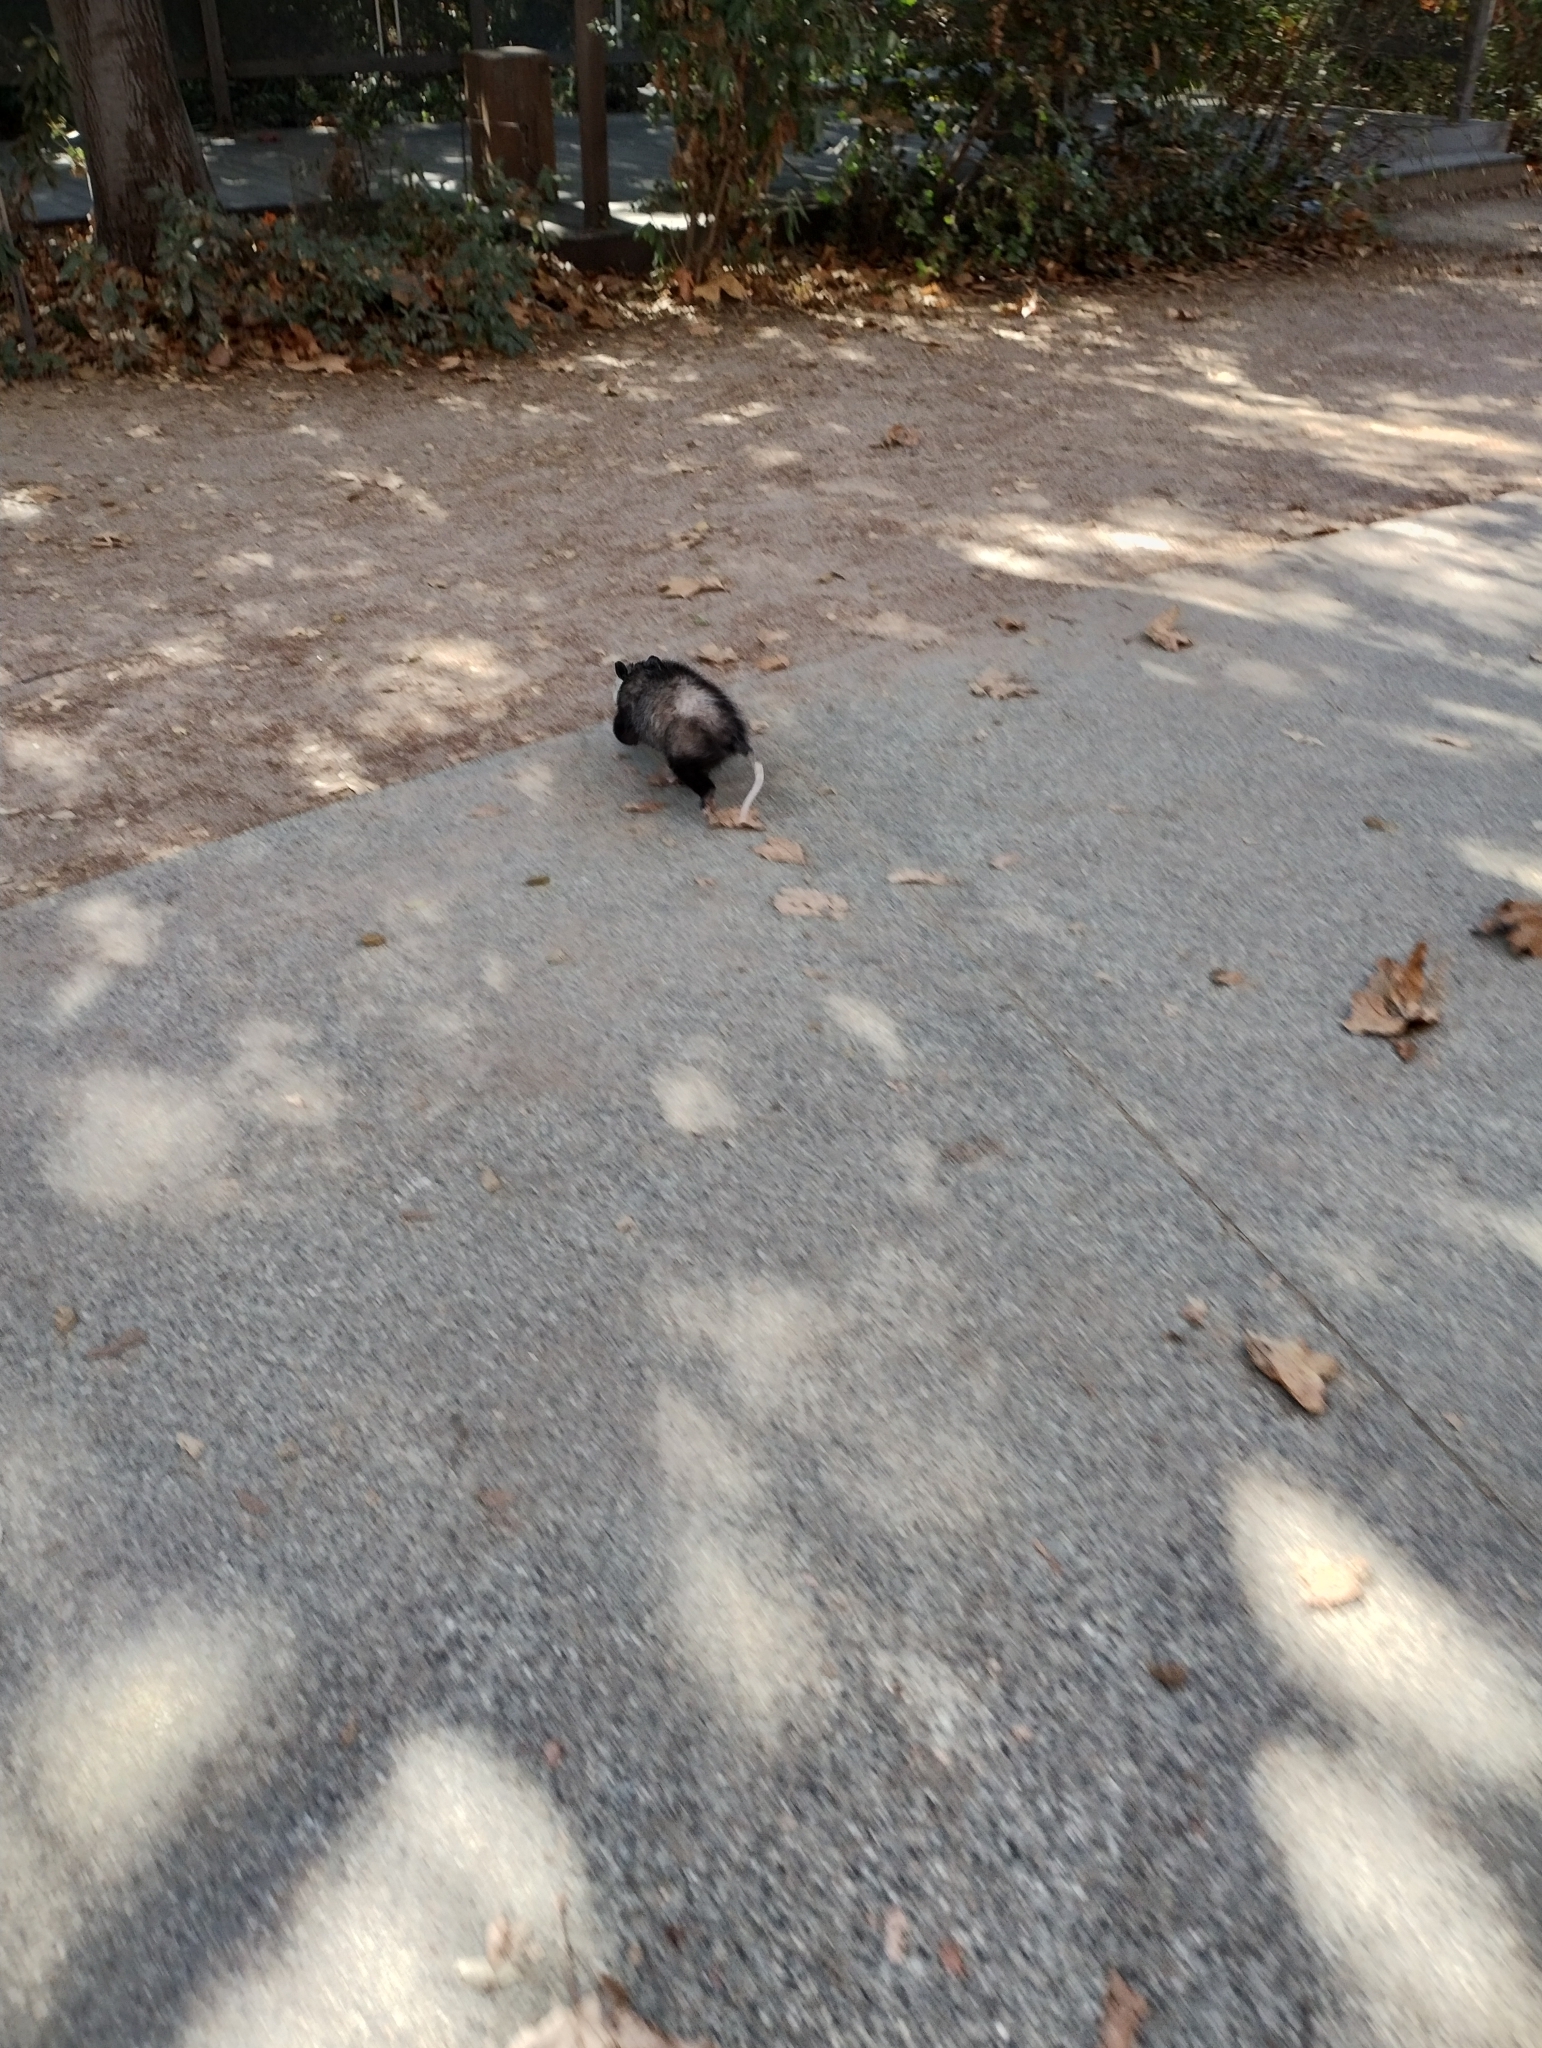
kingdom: Animalia
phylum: Chordata
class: Mammalia
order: Didelphimorphia
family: Didelphidae
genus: Didelphis
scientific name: Didelphis virginiana
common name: Virginia opossum
